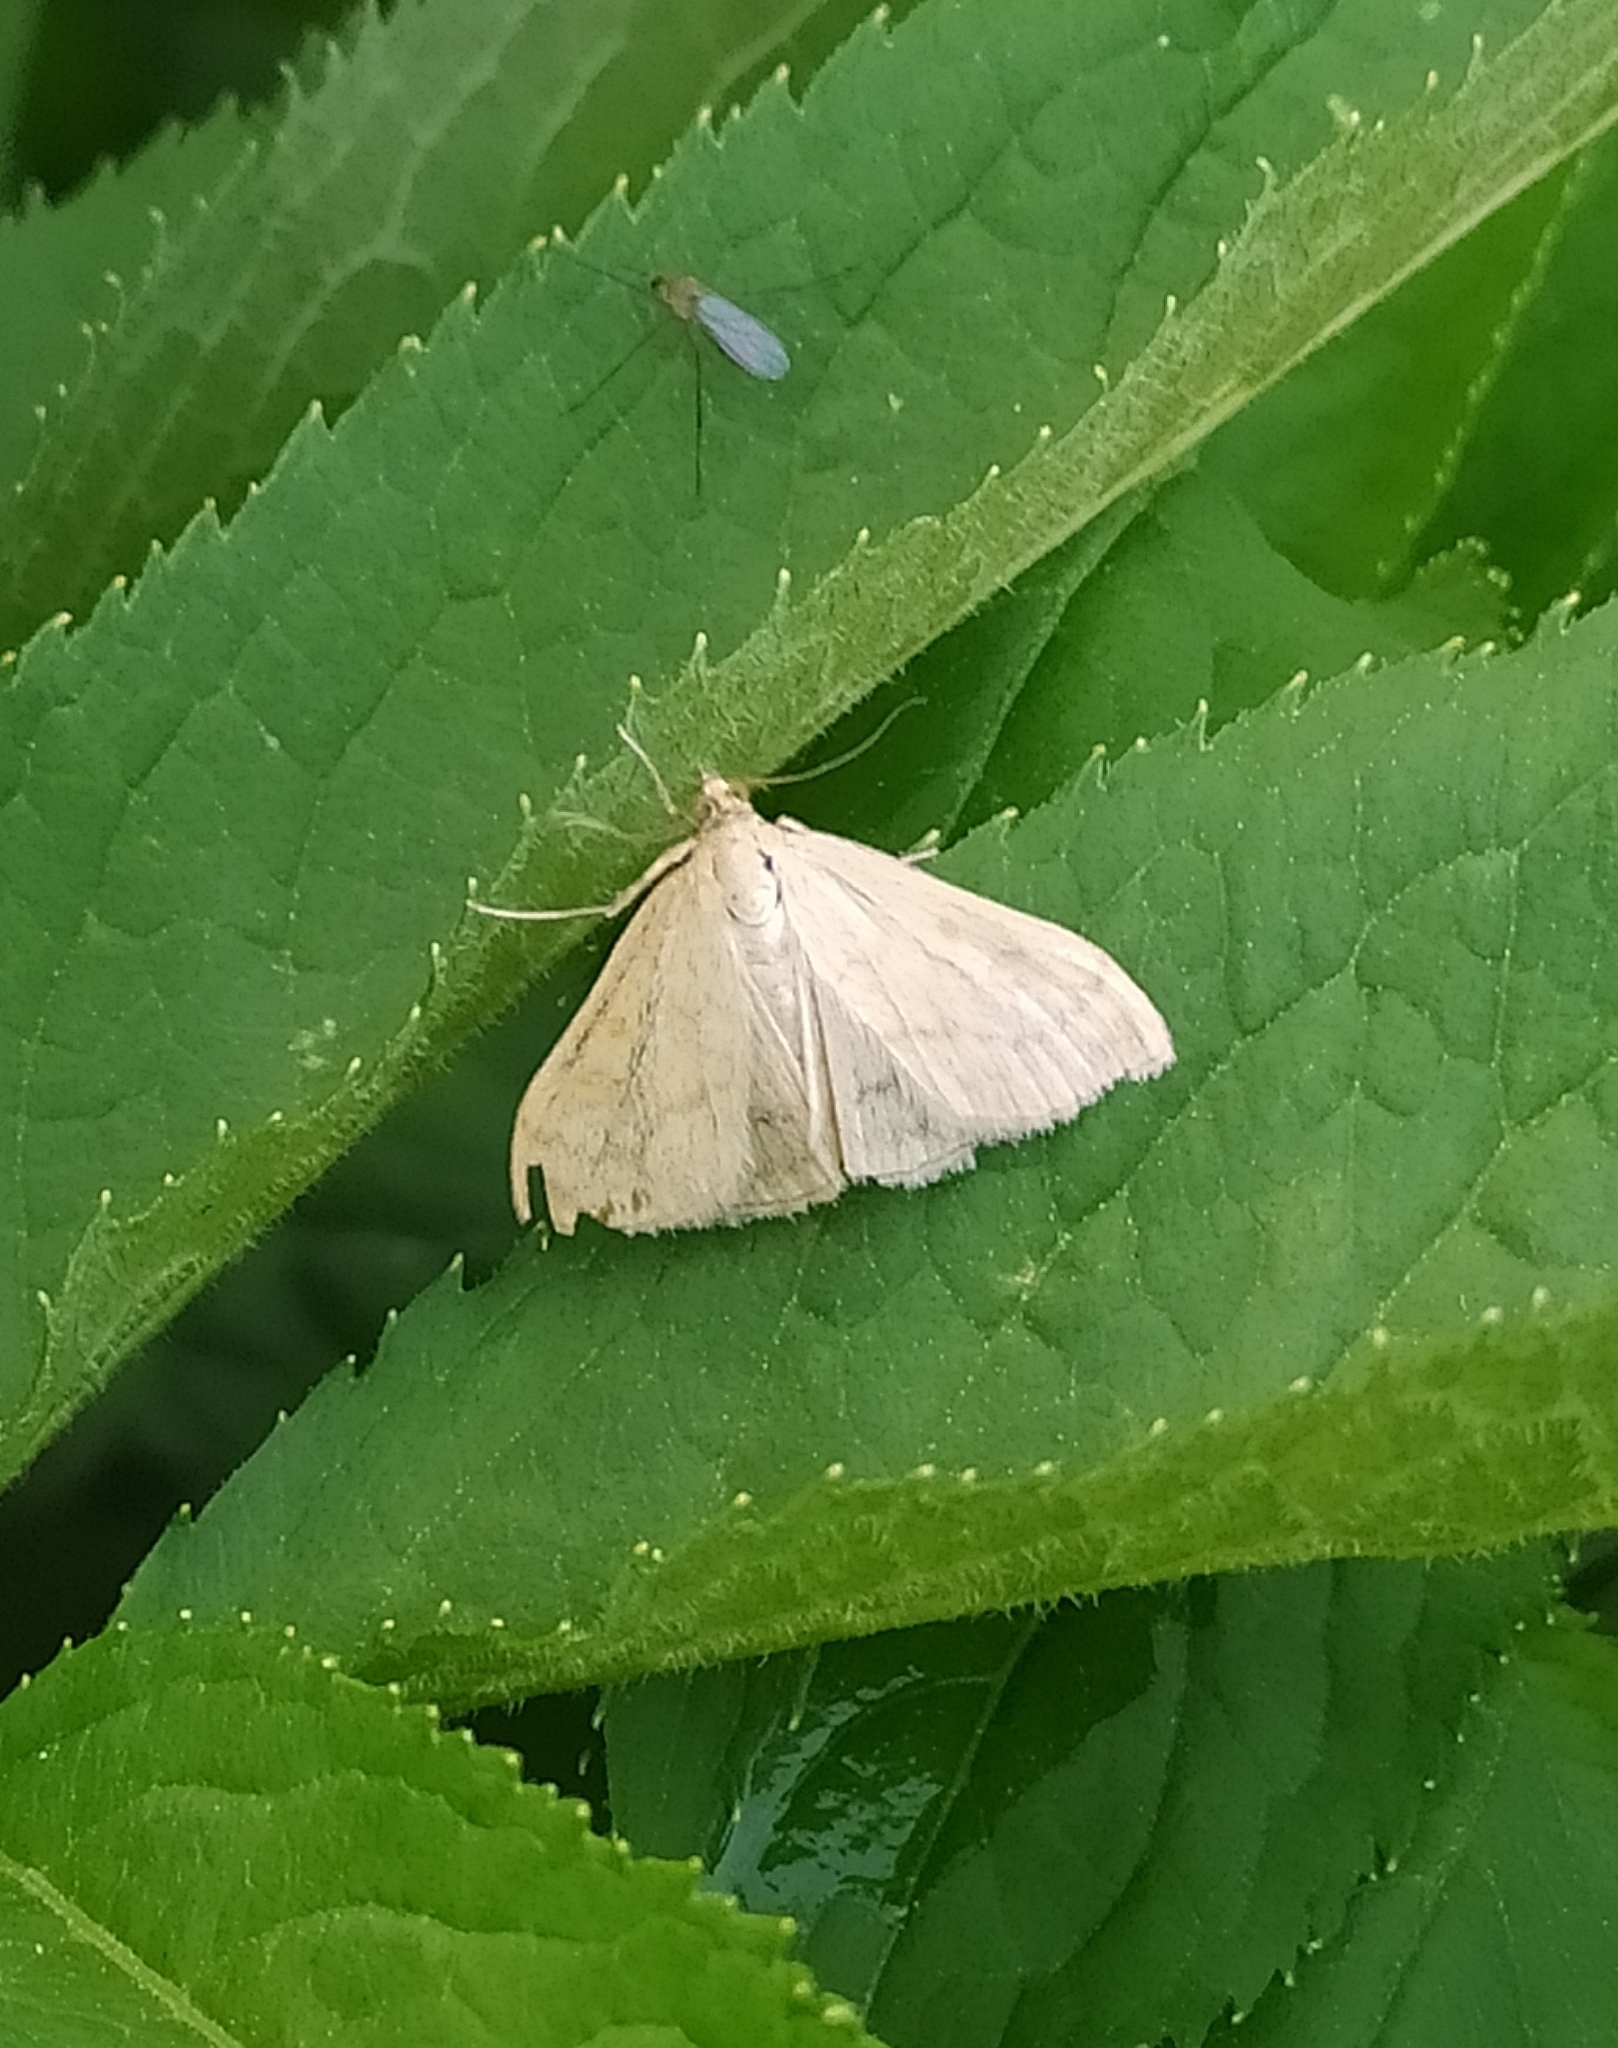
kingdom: Animalia
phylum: Arthropoda
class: Insecta
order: Lepidoptera
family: Crambidae
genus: Sitochroa
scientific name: Sitochroa verticalis
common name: Lesser pearl
